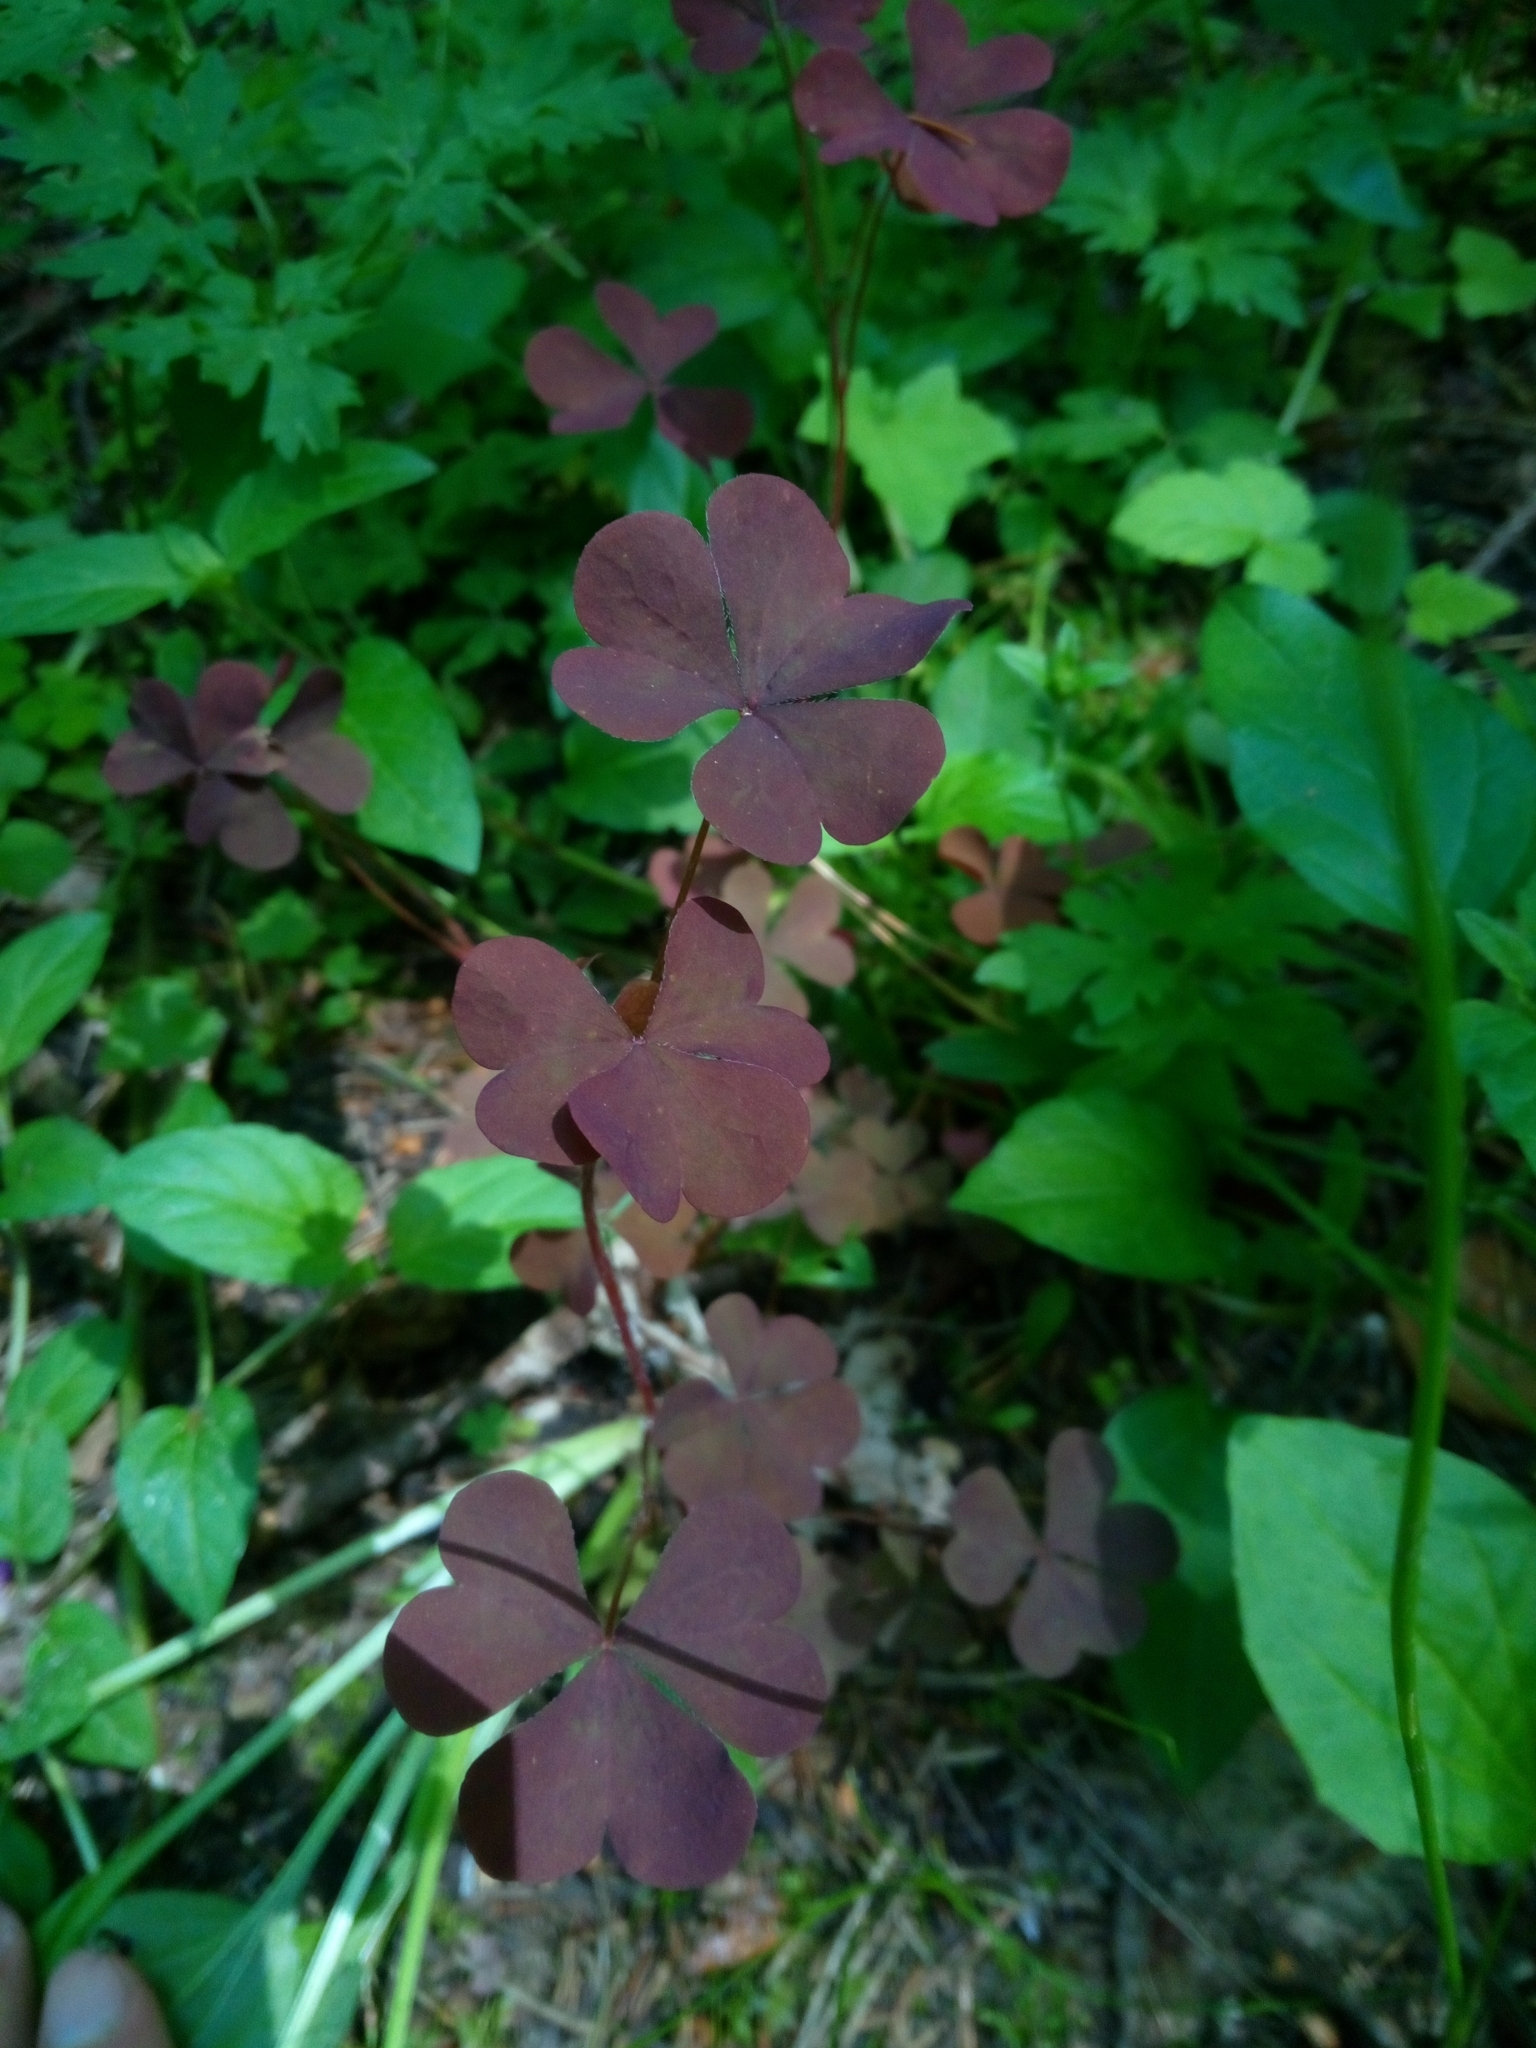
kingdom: Plantae
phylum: Tracheophyta
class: Magnoliopsida
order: Oxalidales
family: Oxalidaceae
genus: Oxalis
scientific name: Oxalis stricta
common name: Upright yellow-sorrel
